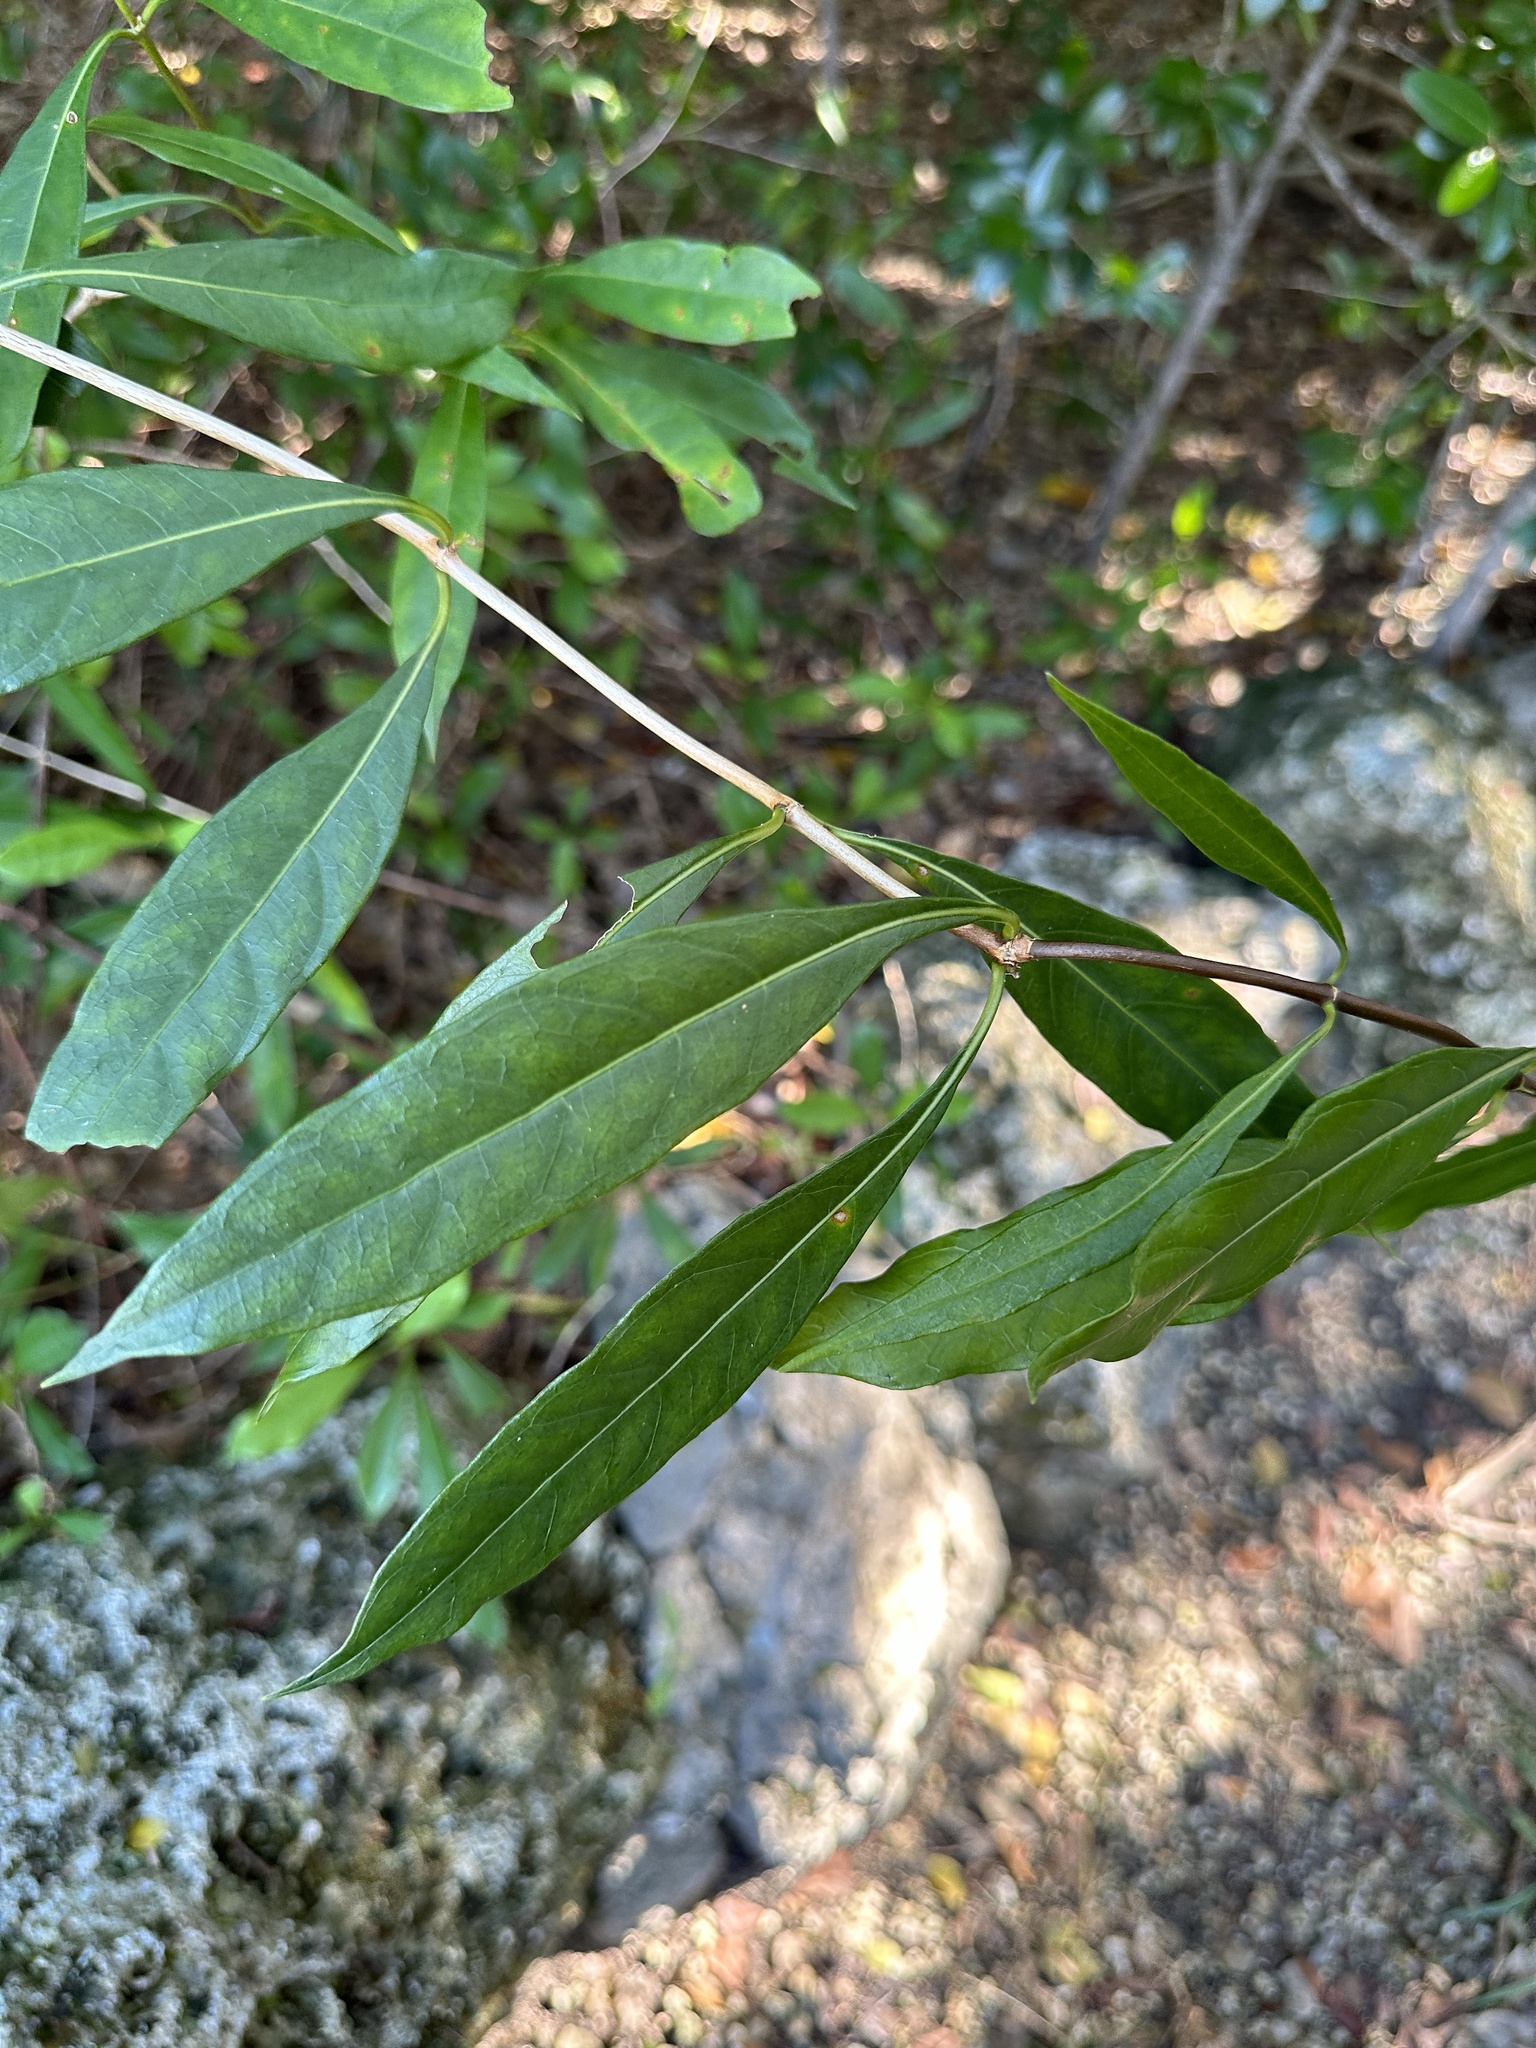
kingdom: Plantae
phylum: Tracheophyta
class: Magnoliopsida
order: Gentianales
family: Rubiaceae
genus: Morinda
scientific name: Morinda royoc
